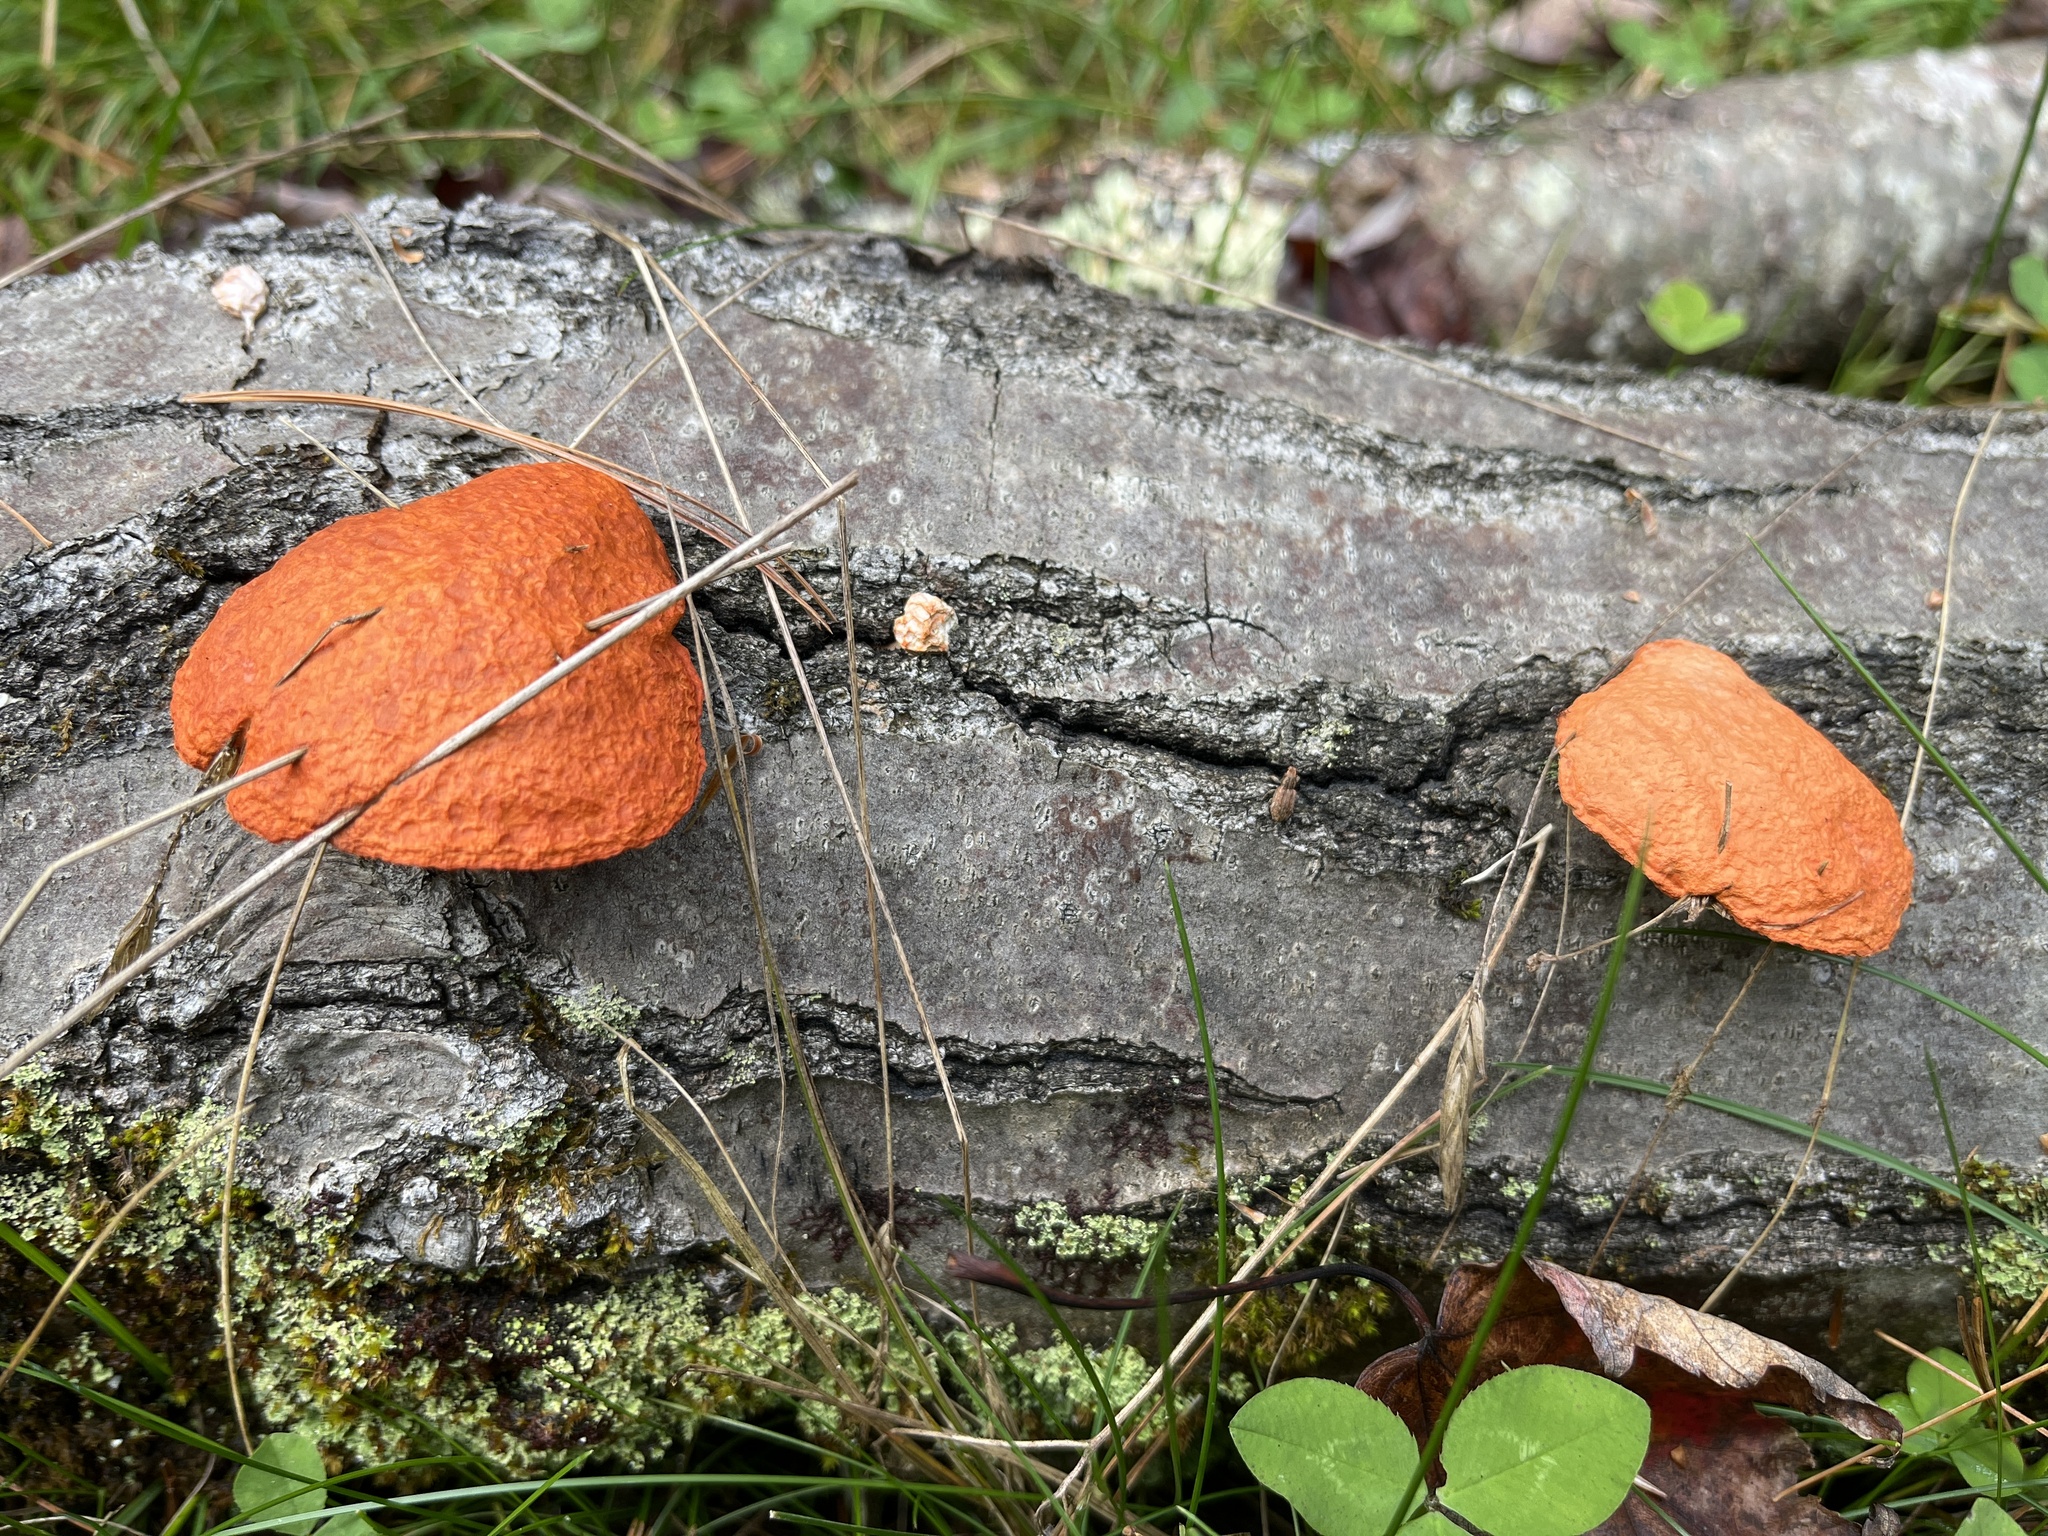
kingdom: Fungi
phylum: Basidiomycota
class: Agaricomycetes
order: Polyporales
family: Polyporaceae
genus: Trametes
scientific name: Trametes cinnabarina
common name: Northern cinnabar polypore
